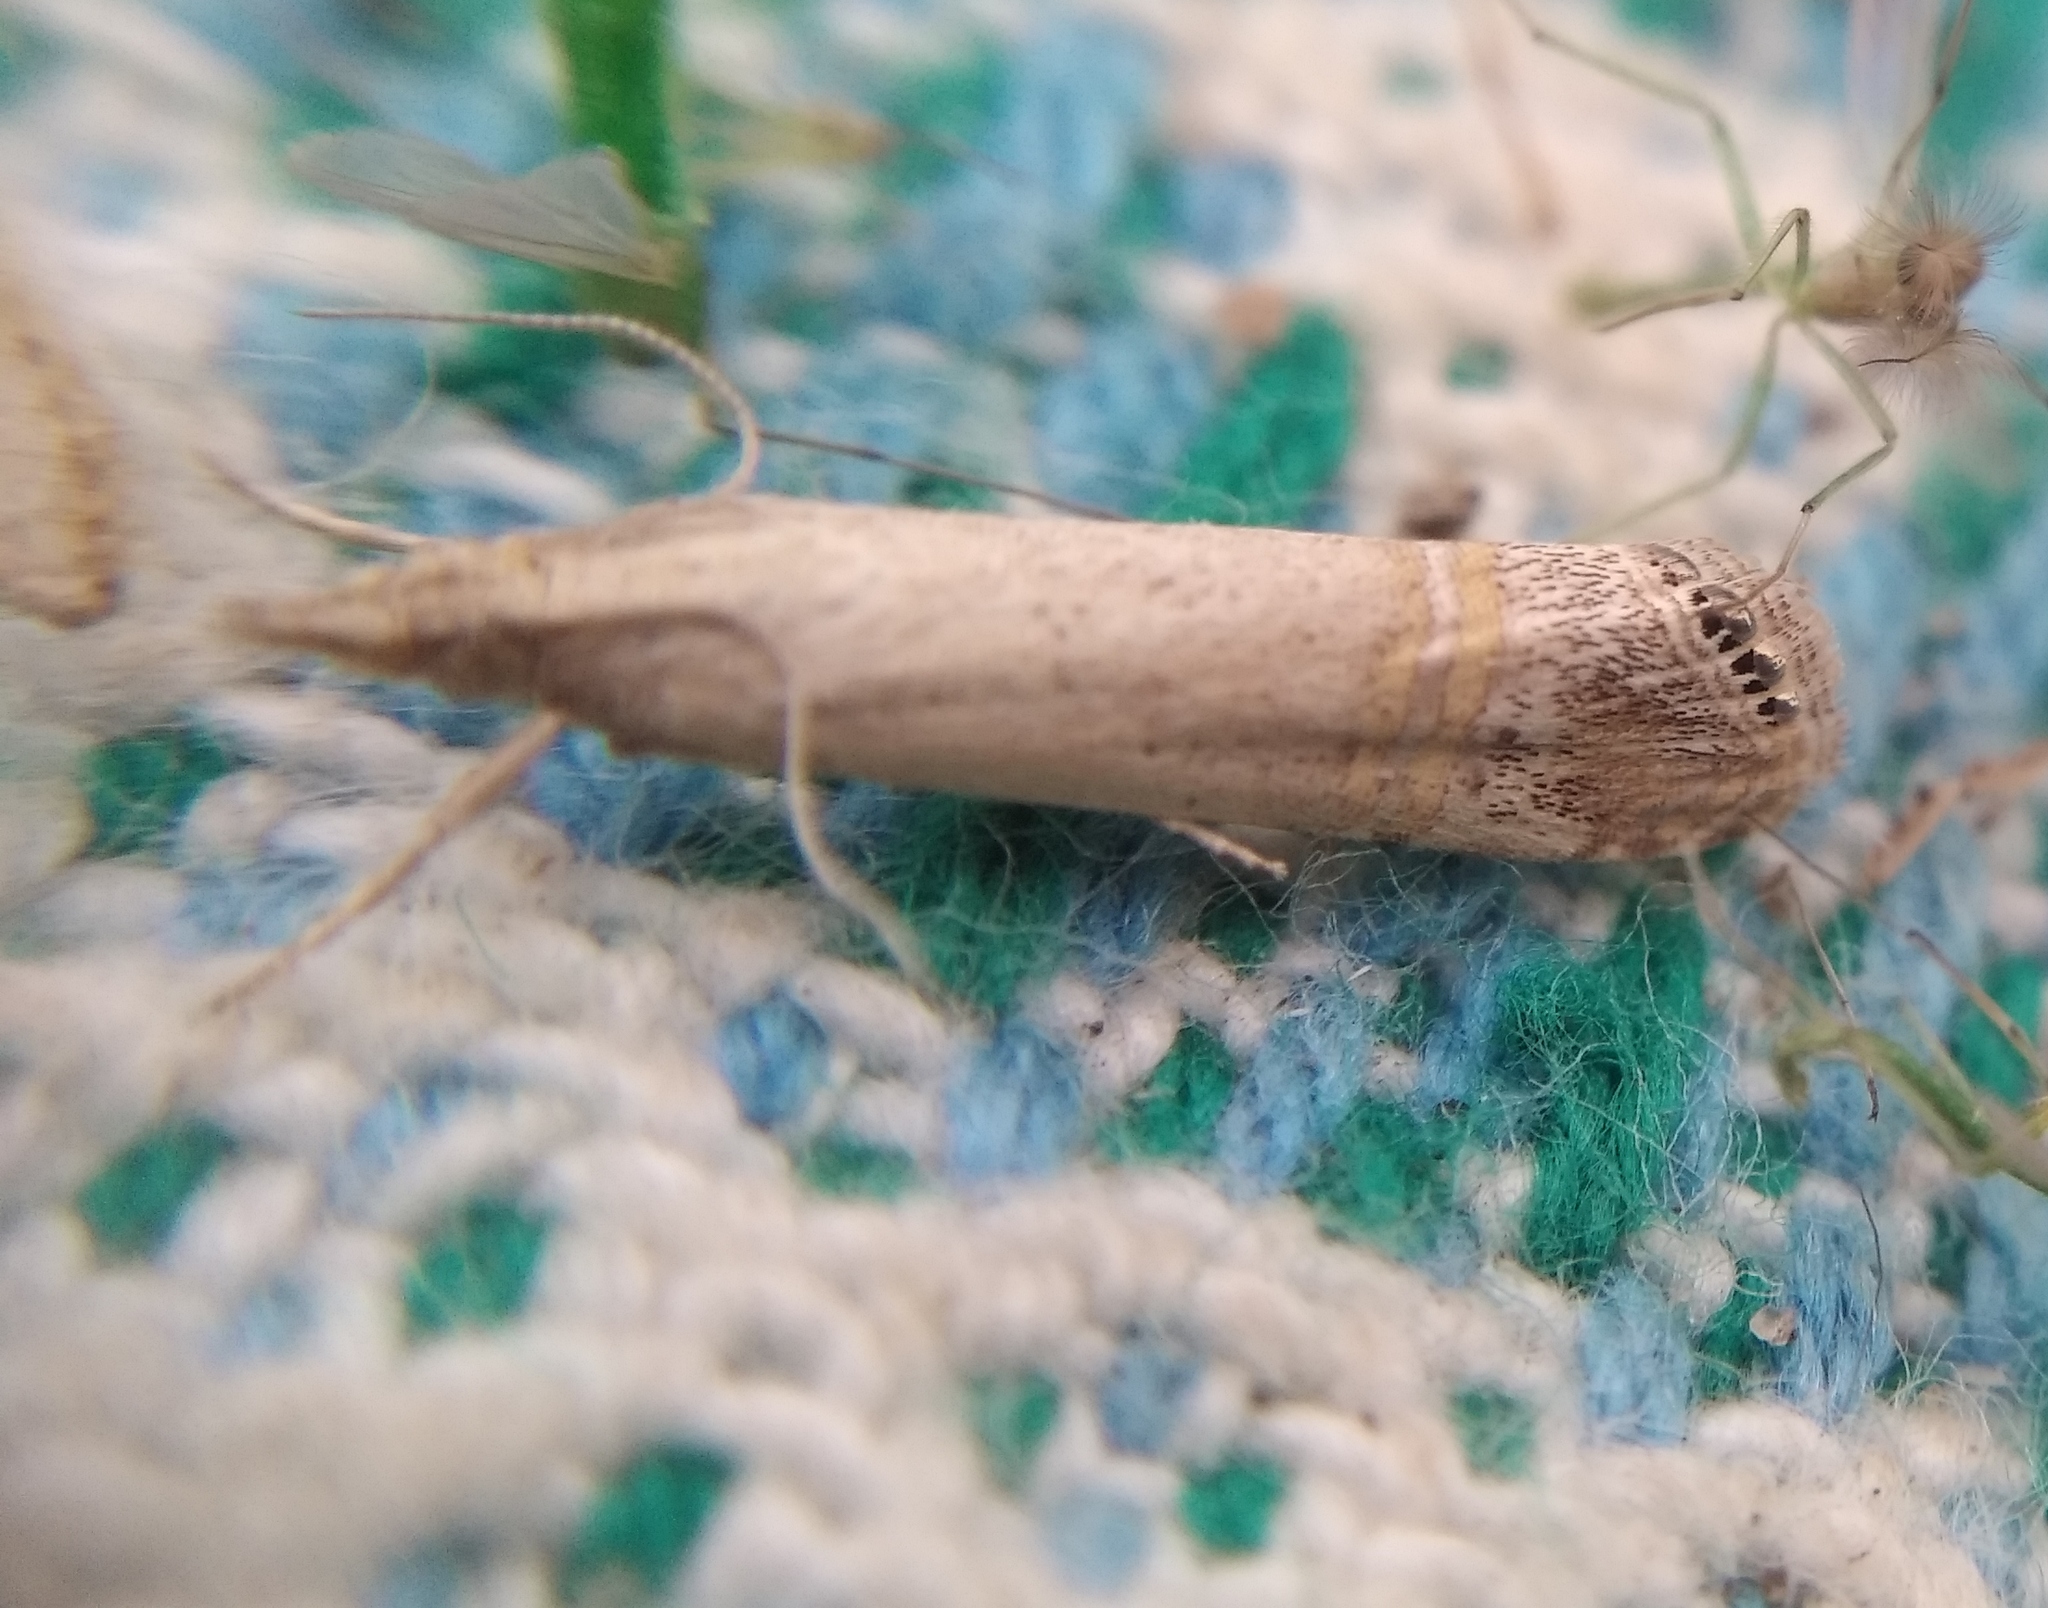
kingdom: Animalia
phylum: Arthropoda
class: Insecta
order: Lepidoptera
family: Crambidae
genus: Euchromius
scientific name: Euchromius ocellea
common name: Necklace veneer moth
